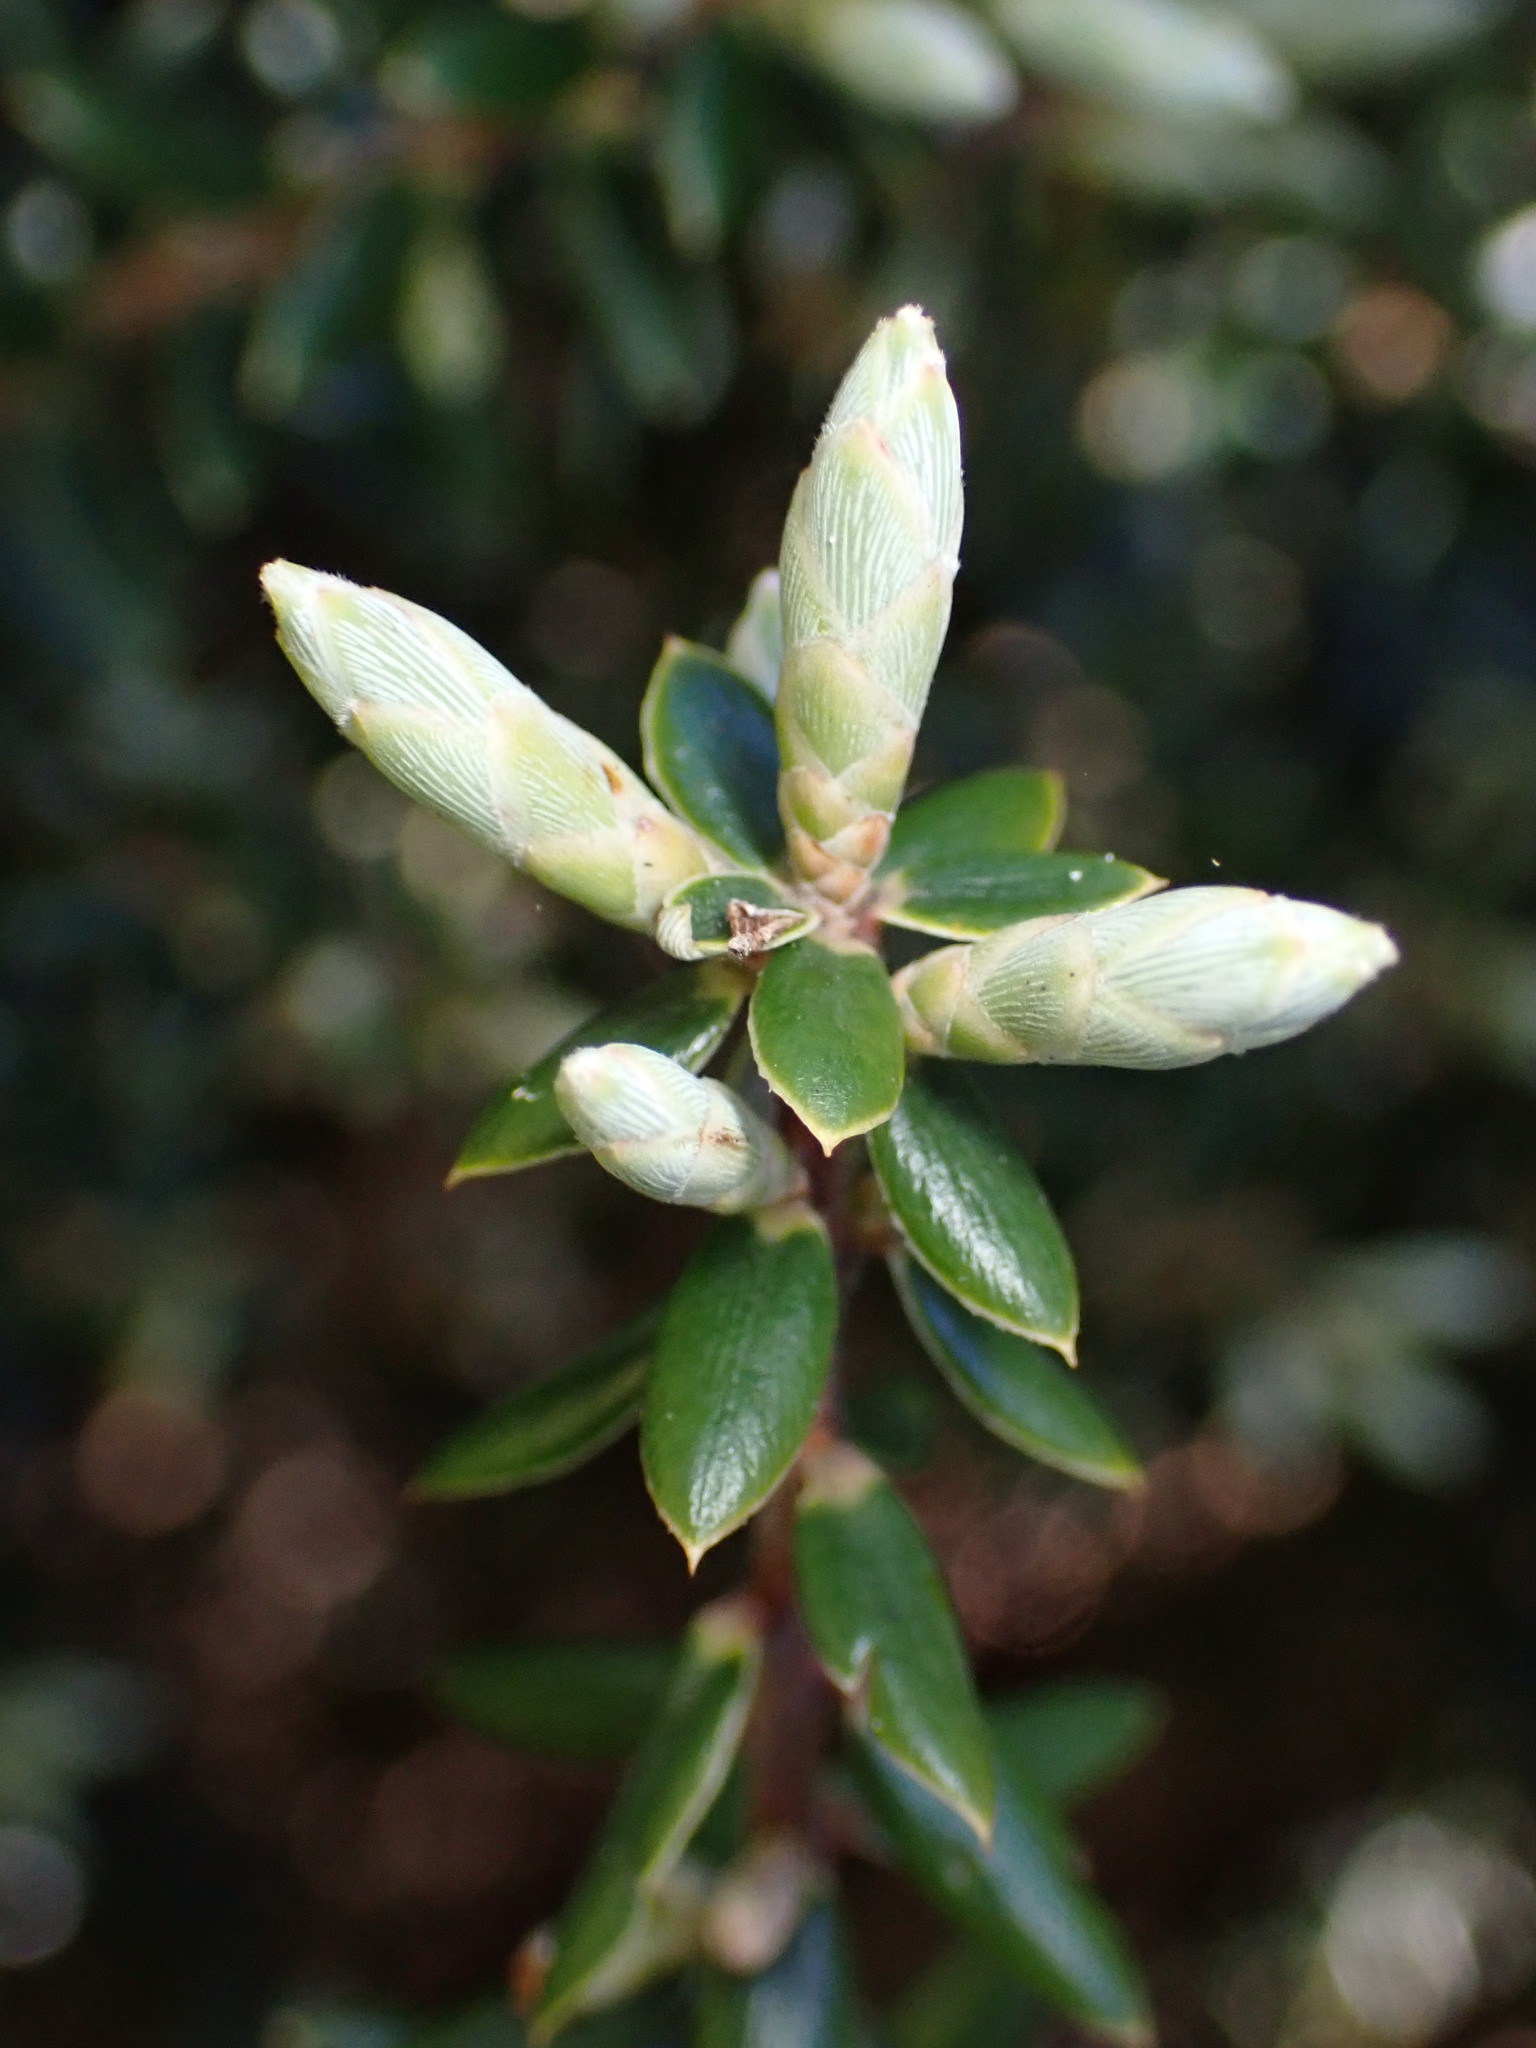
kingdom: Plantae
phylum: Tracheophyta
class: Magnoliopsida
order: Ericales
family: Ericaceae
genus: Leptecophylla
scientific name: Leptecophylla tameiameiae
